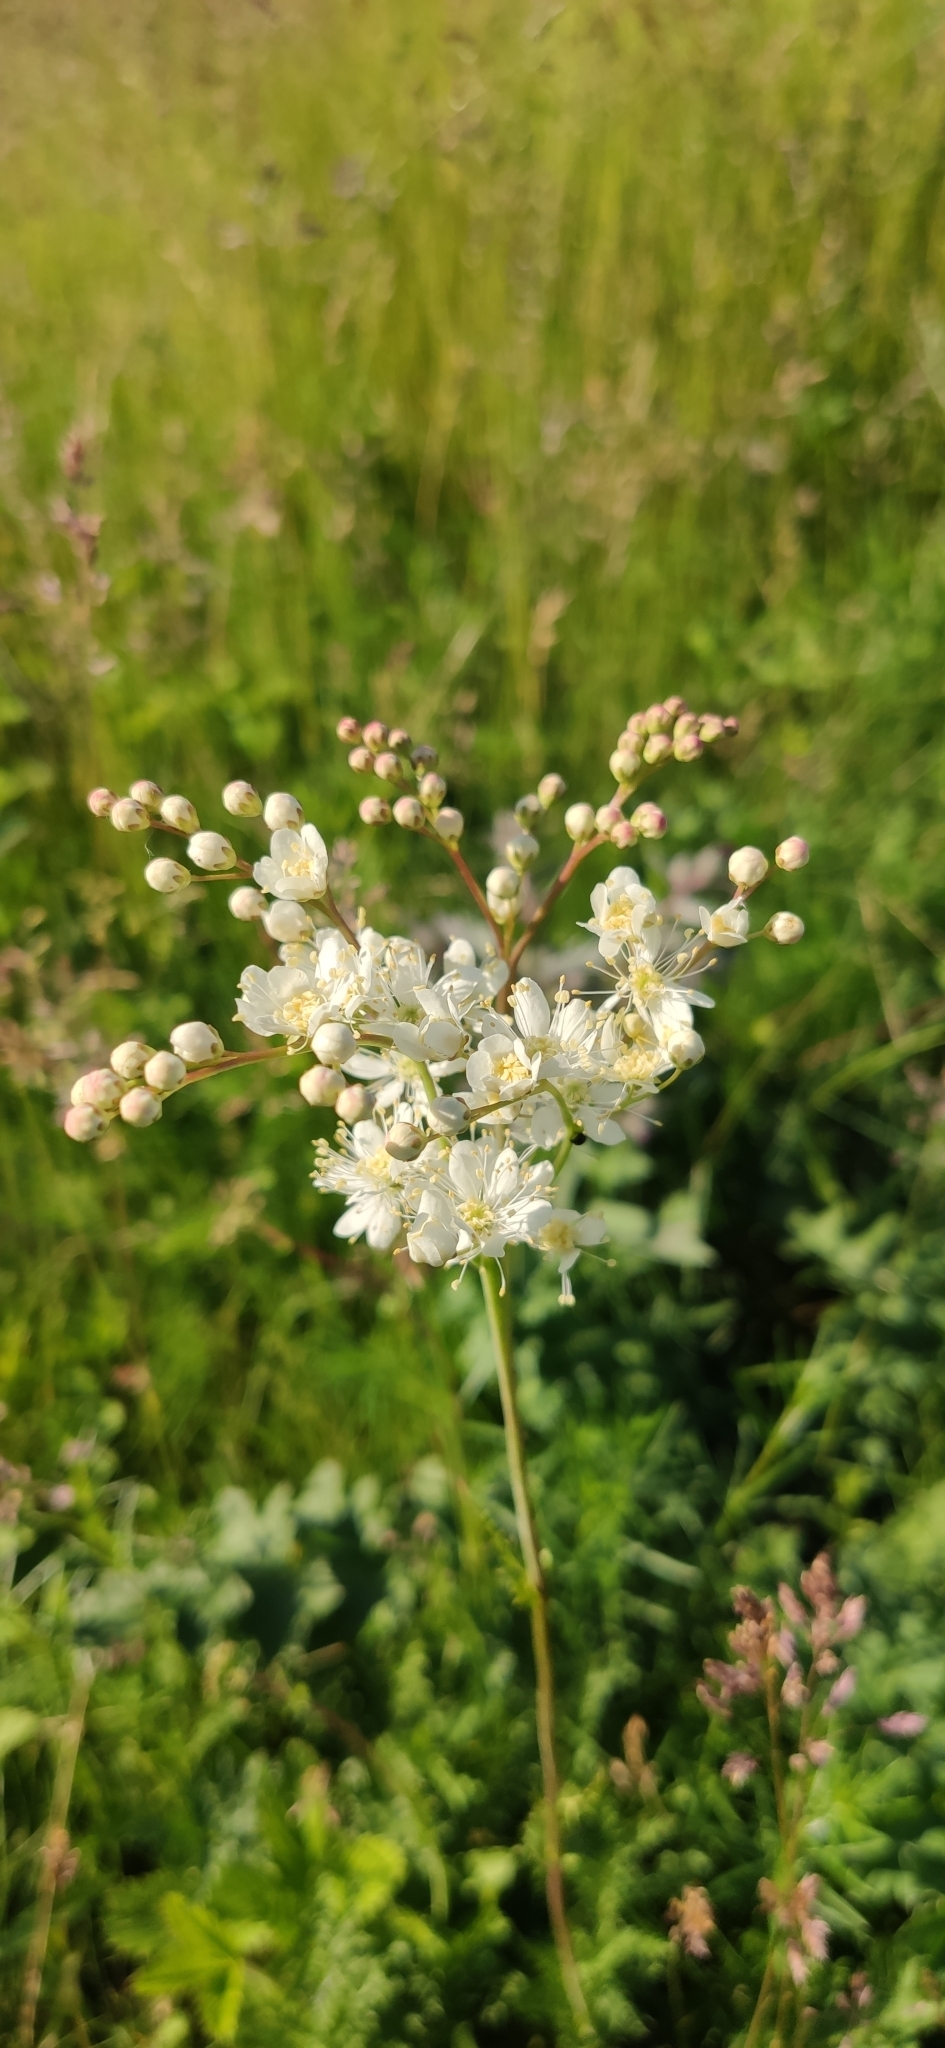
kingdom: Plantae
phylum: Tracheophyta
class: Magnoliopsida
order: Rosales
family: Rosaceae
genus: Filipendula
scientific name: Filipendula vulgaris
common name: Dropwort
